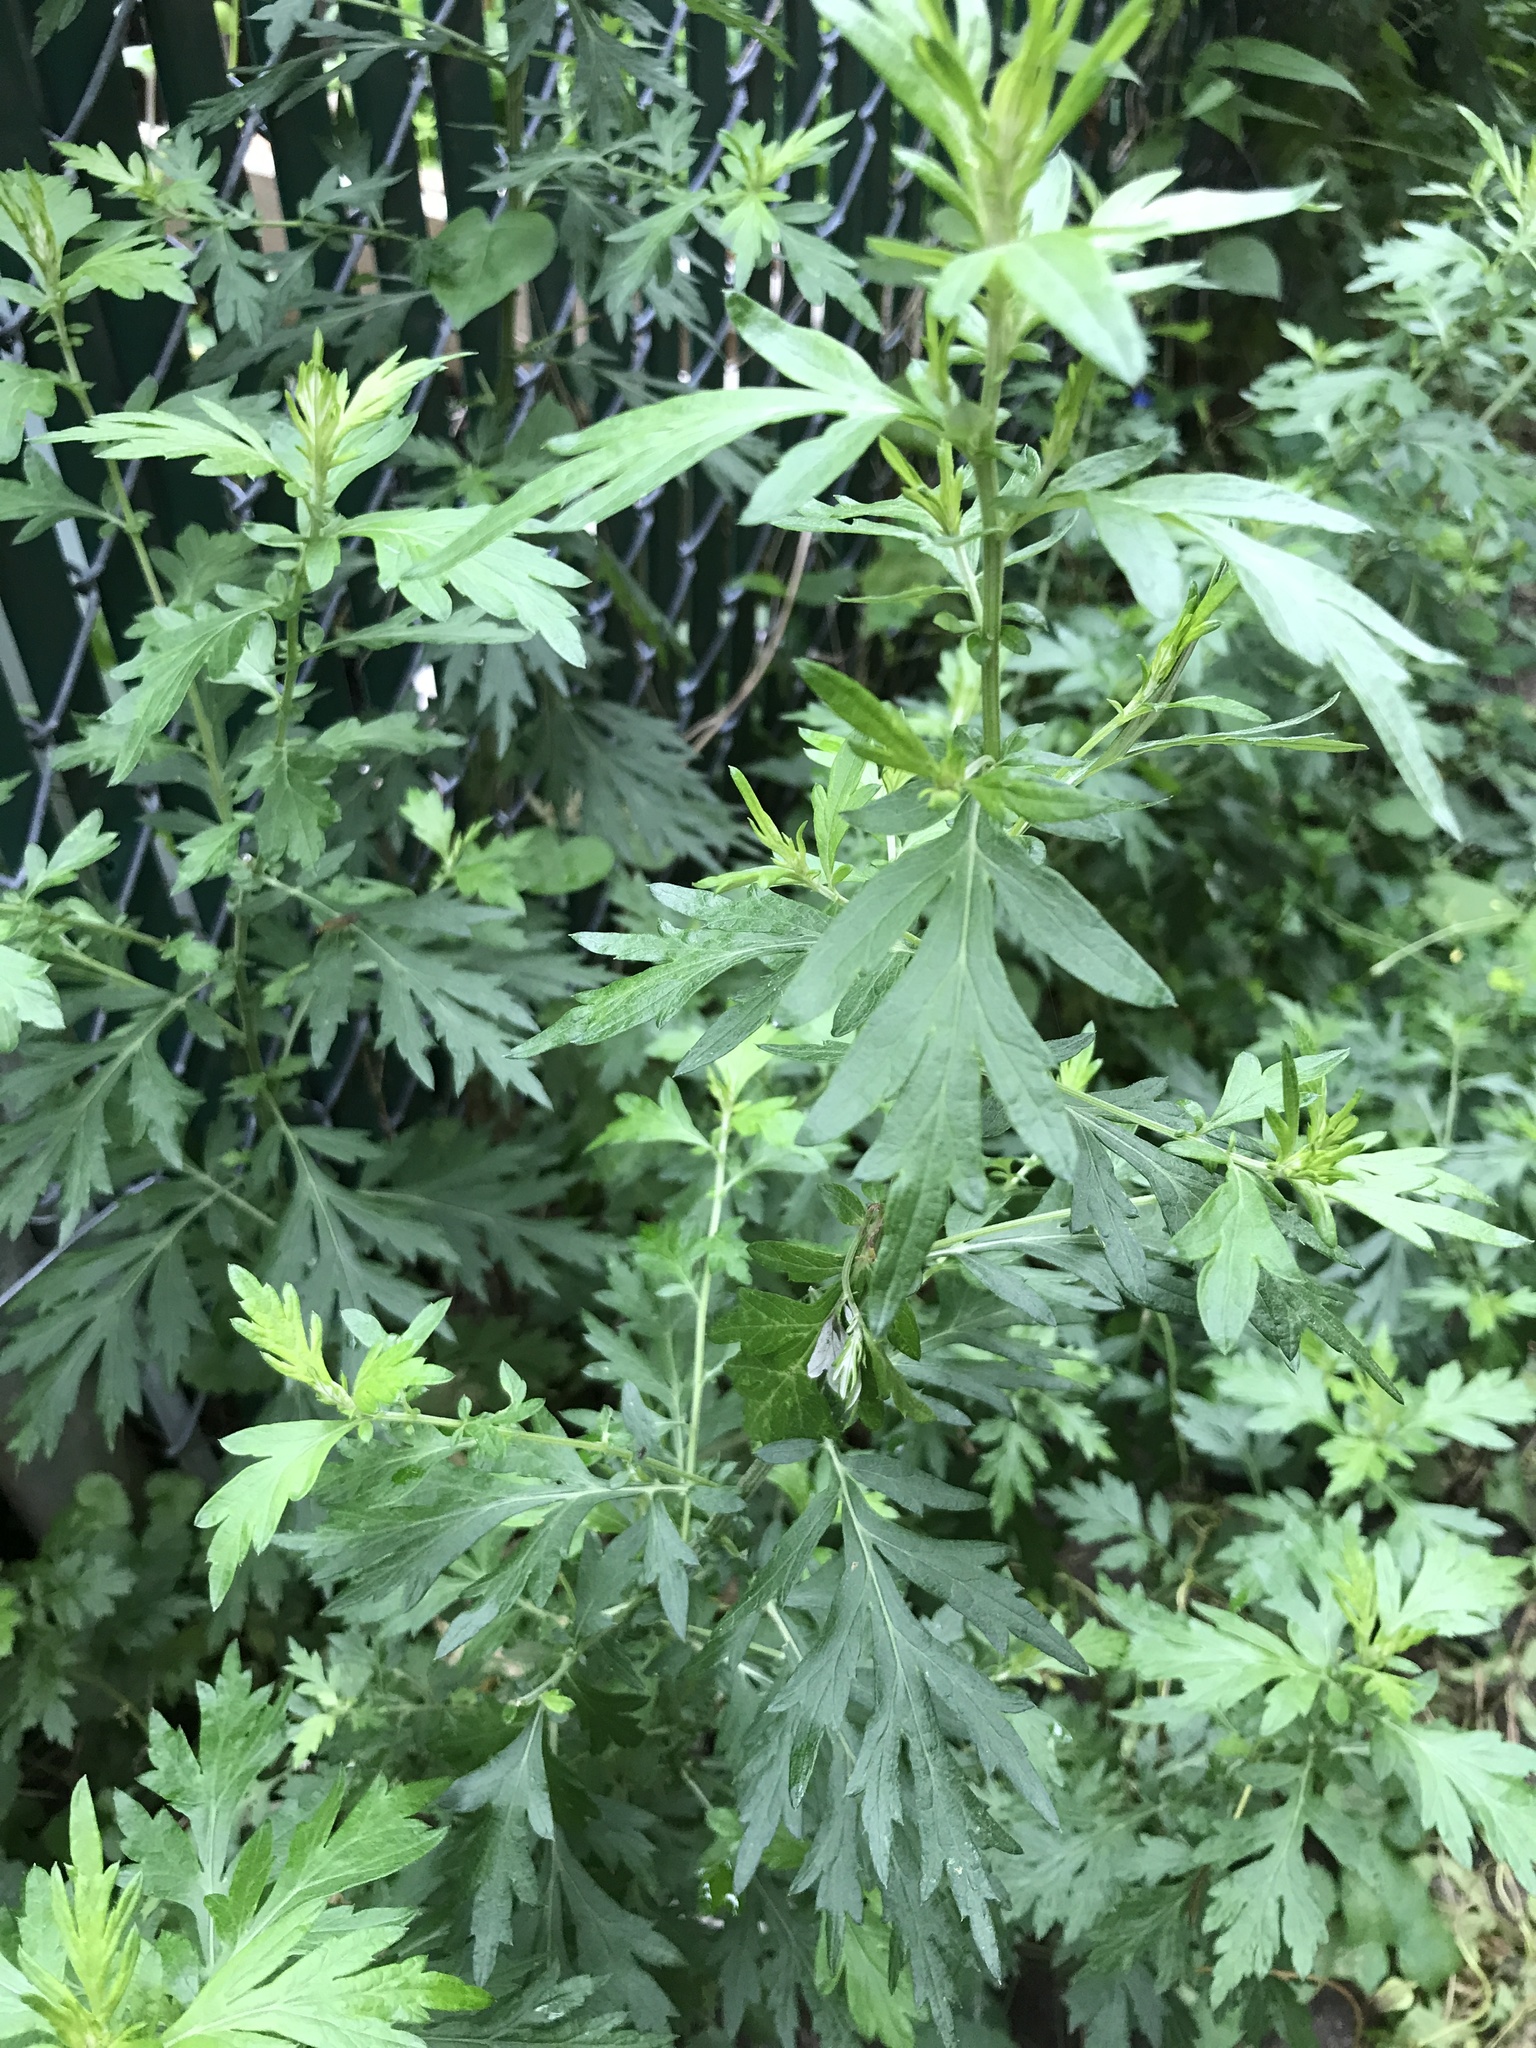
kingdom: Plantae
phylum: Tracheophyta
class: Magnoliopsida
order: Asterales
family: Asteraceae
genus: Artemisia
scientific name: Artemisia vulgaris
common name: Mugwort
